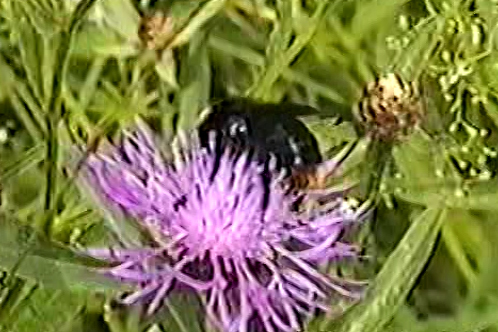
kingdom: Animalia
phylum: Arthropoda
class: Insecta
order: Hymenoptera
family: Apidae
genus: Bombus
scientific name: Bombus rupestris
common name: Hill cuckoo-bee
